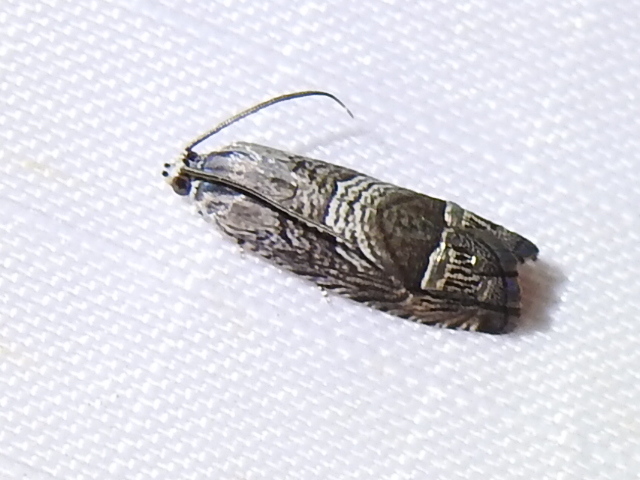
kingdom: Animalia
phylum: Arthropoda
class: Insecta
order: Lepidoptera
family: Tortricidae
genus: Ofatulena
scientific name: Ofatulena duodecemstriata
